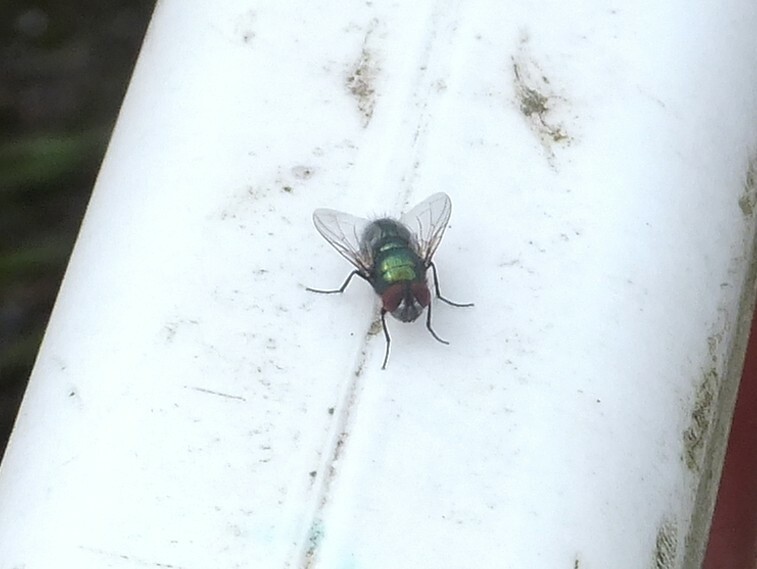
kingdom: Animalia
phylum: Arthropoda
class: Insecta
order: Diptera
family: Calliphoridae
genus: Lucilia
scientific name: Lucilia
